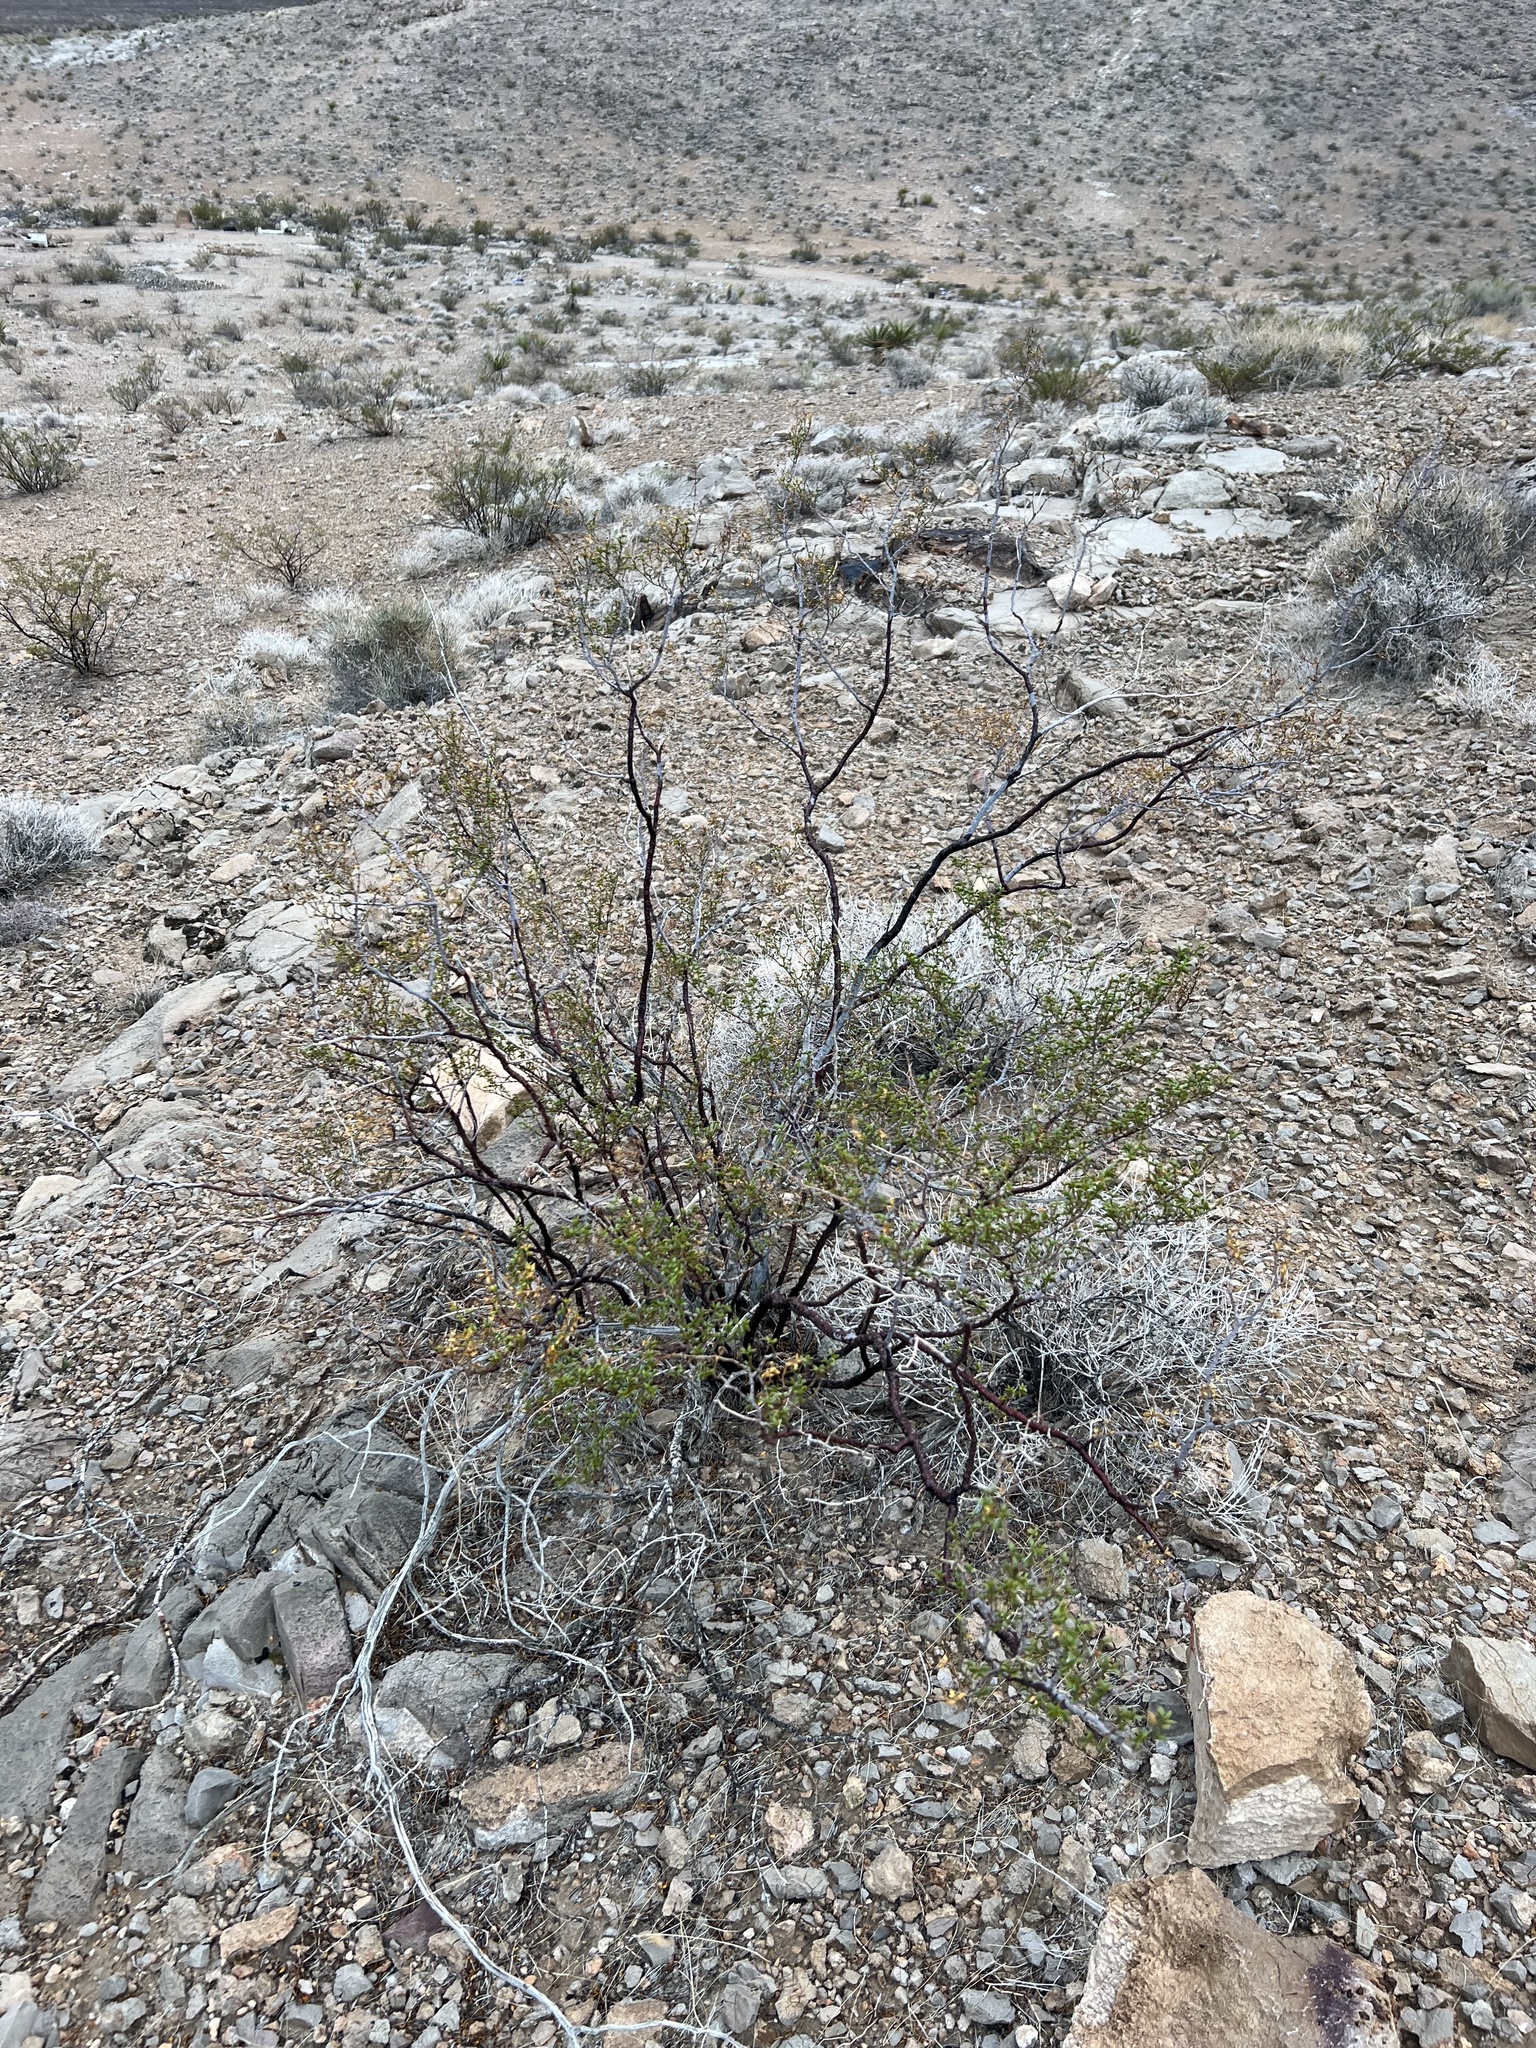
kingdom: Plantae
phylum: Tracheophyta
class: Magnoliopsida
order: Zygophyllales
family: Zygophyllaceae
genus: Larrea
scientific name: Larrea tridentata
